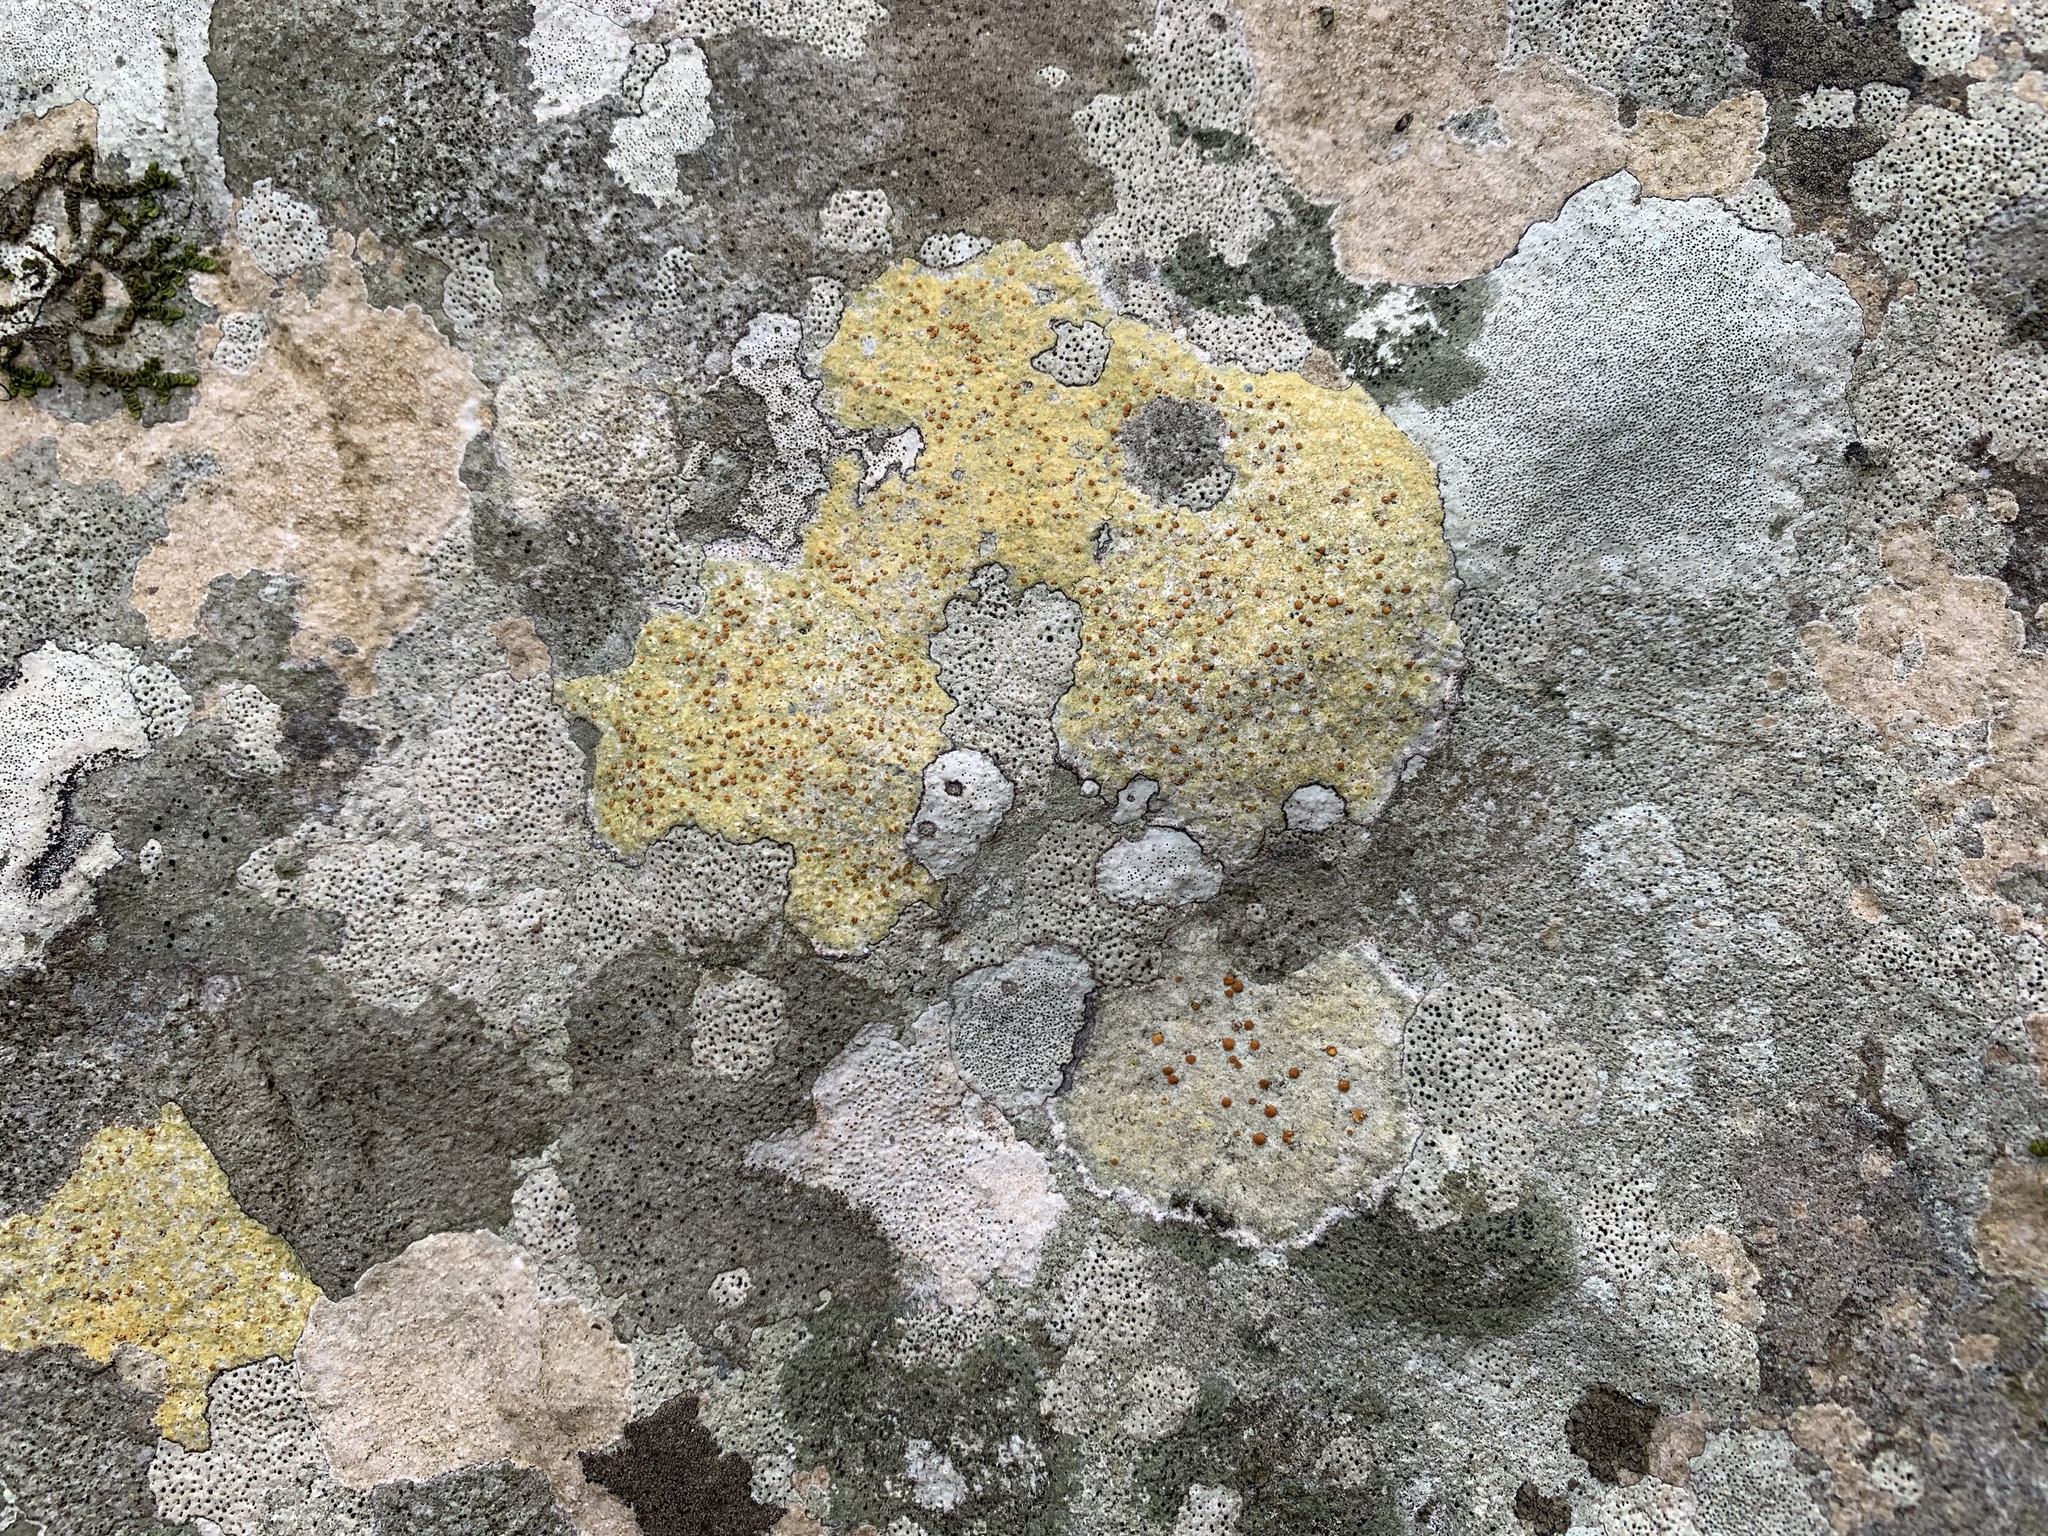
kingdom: Fungi
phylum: Ascomycota
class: Lecanoromycetes
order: Teloschistales
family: Teloschistaceae
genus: Gyalolechia
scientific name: Gyalolechia flavovirescens
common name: Sulphur firedot
